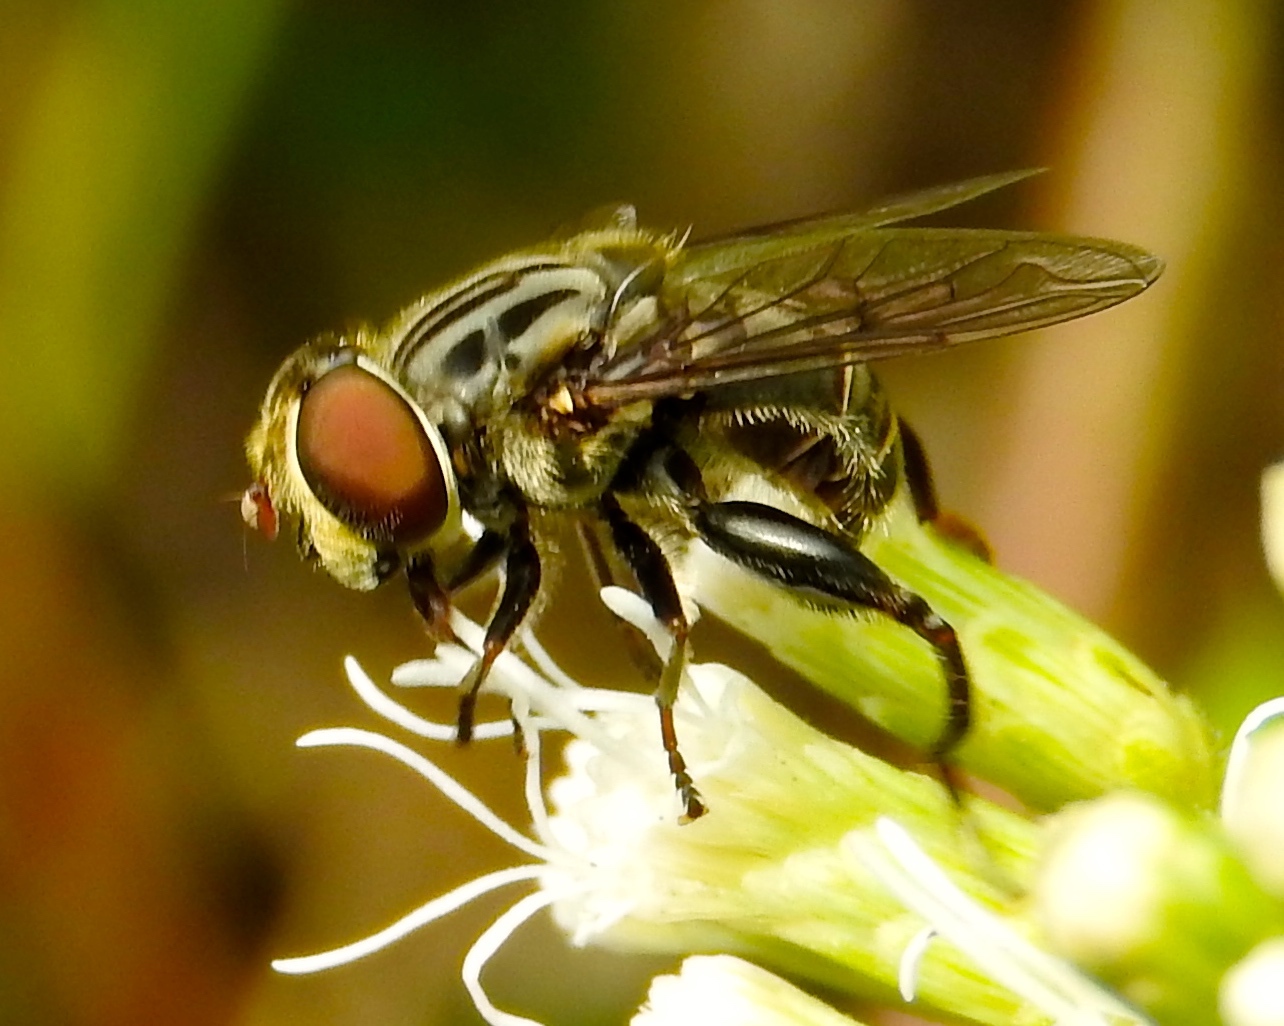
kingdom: Animalia
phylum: Arthropoda
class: Insecta
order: Diptera
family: Syrphidae
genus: Palpada
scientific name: Palpada furcata
